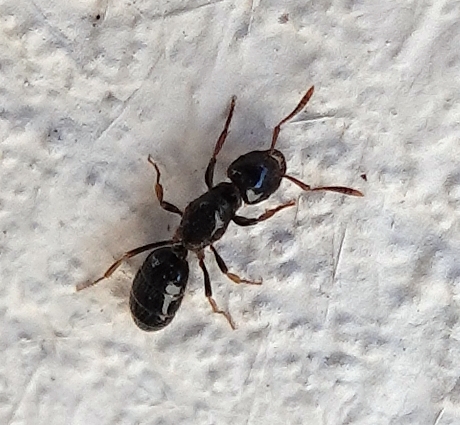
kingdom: Animalia
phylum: Arthropoda
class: Insecta
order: Hymenoptera
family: Formicidae
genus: Lasius
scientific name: Lasius
